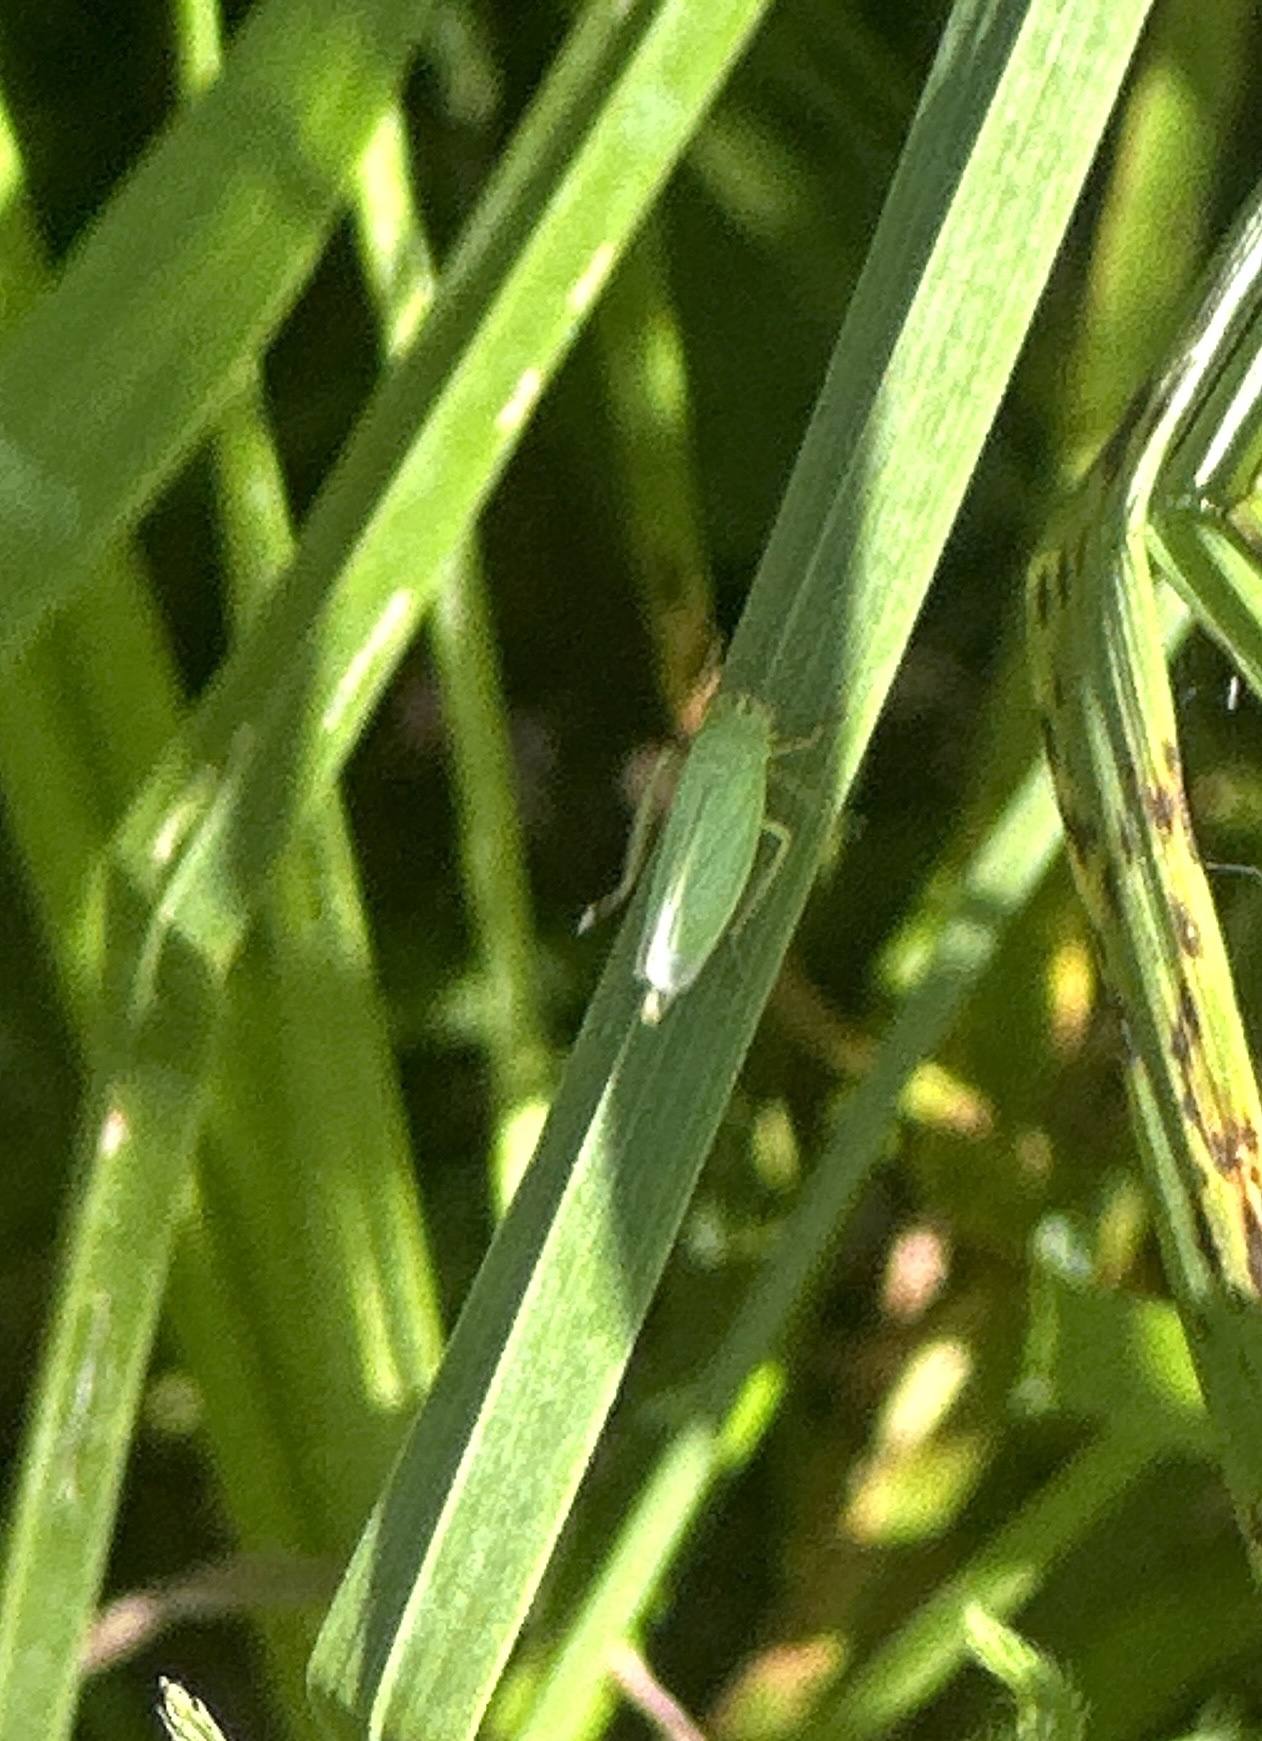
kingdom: Animalia
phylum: Arthropoda
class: Insecta
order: Hemiptera
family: Cicadellidae
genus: Cicadella
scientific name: Cicadella viridis
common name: Leafhopper
